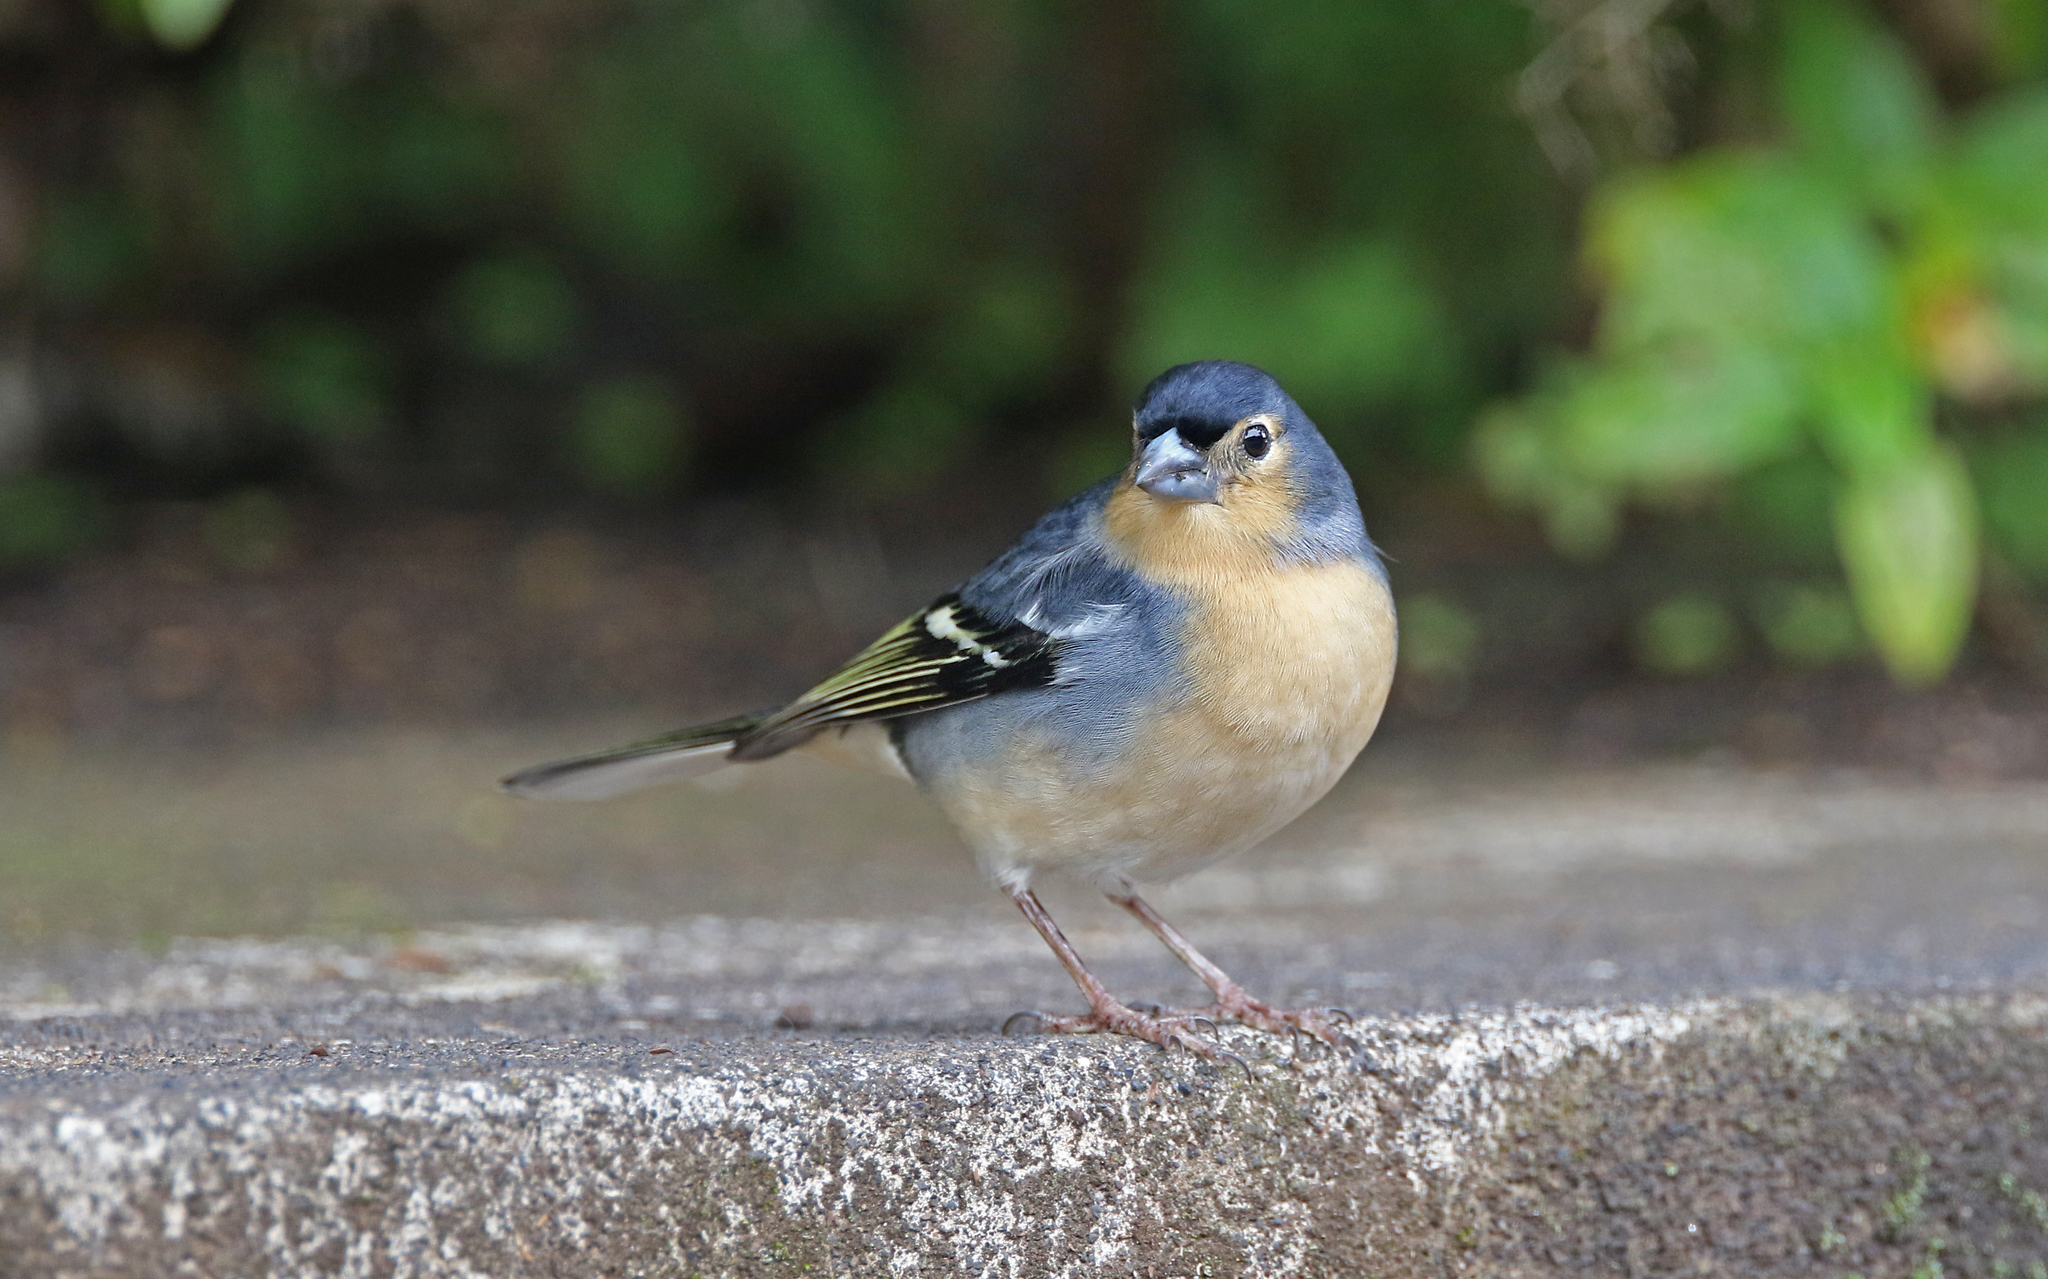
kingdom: Animalia
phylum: Chordata
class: Aves
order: Passeriformes
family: Fringillidae
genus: Fringilla
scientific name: Fringilla canariensis
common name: Canary islands chaffinch
